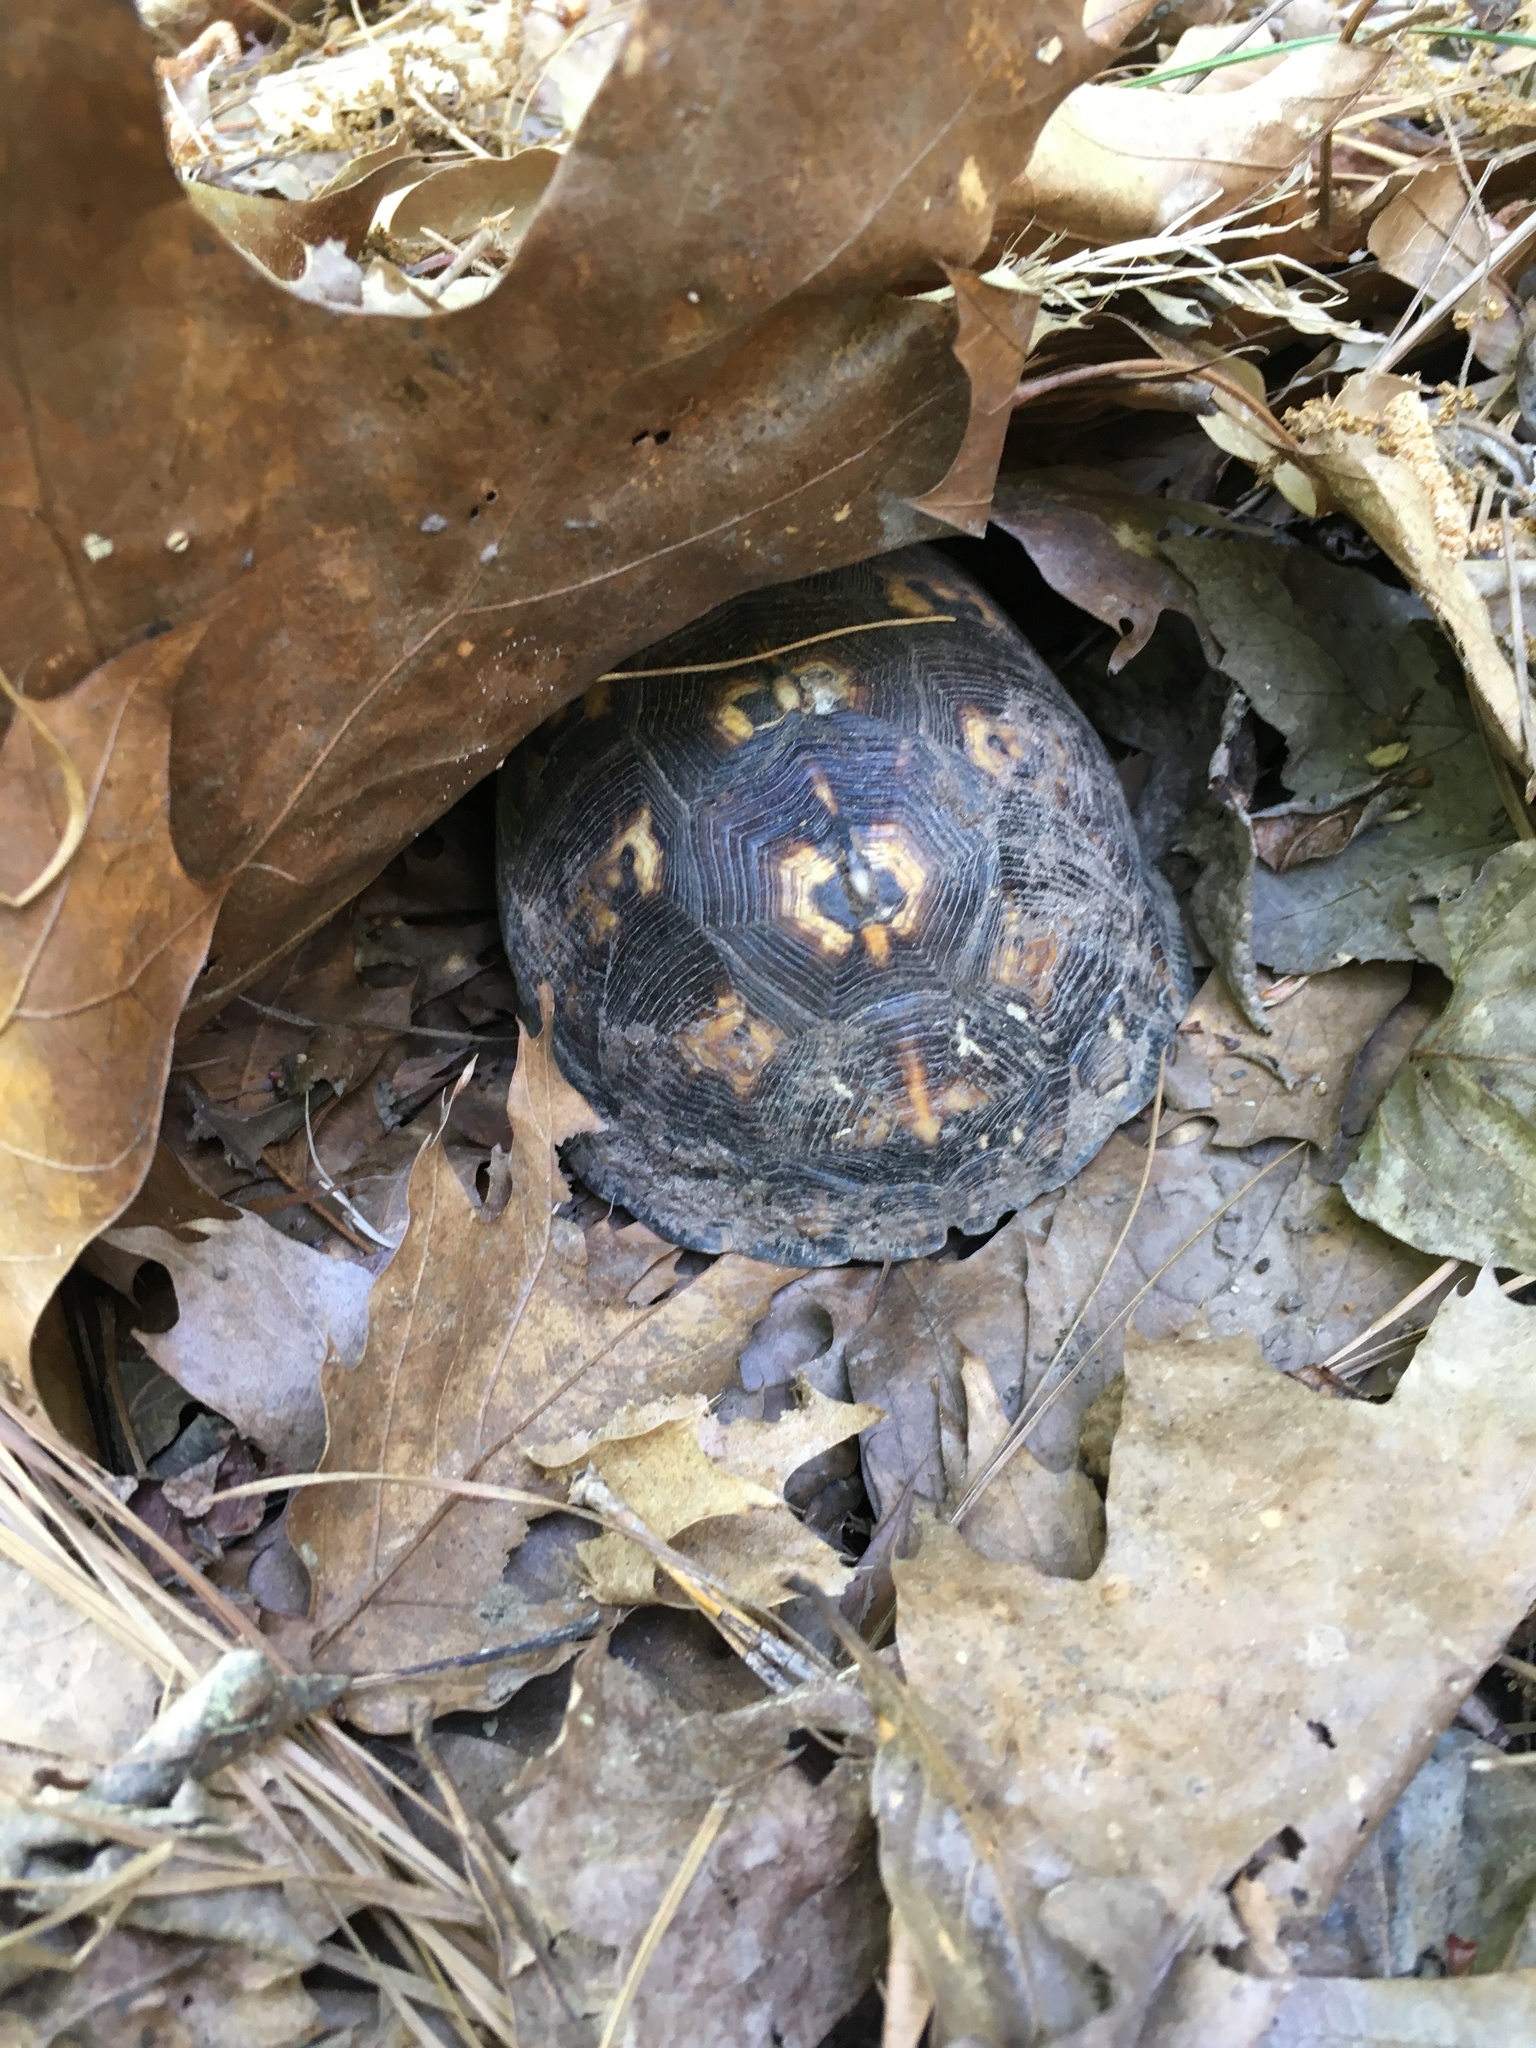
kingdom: Animalia
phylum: Chordata
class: Testudines
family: Emydidae
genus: Terrapene
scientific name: Terrapene carolina
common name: Common box turtle
